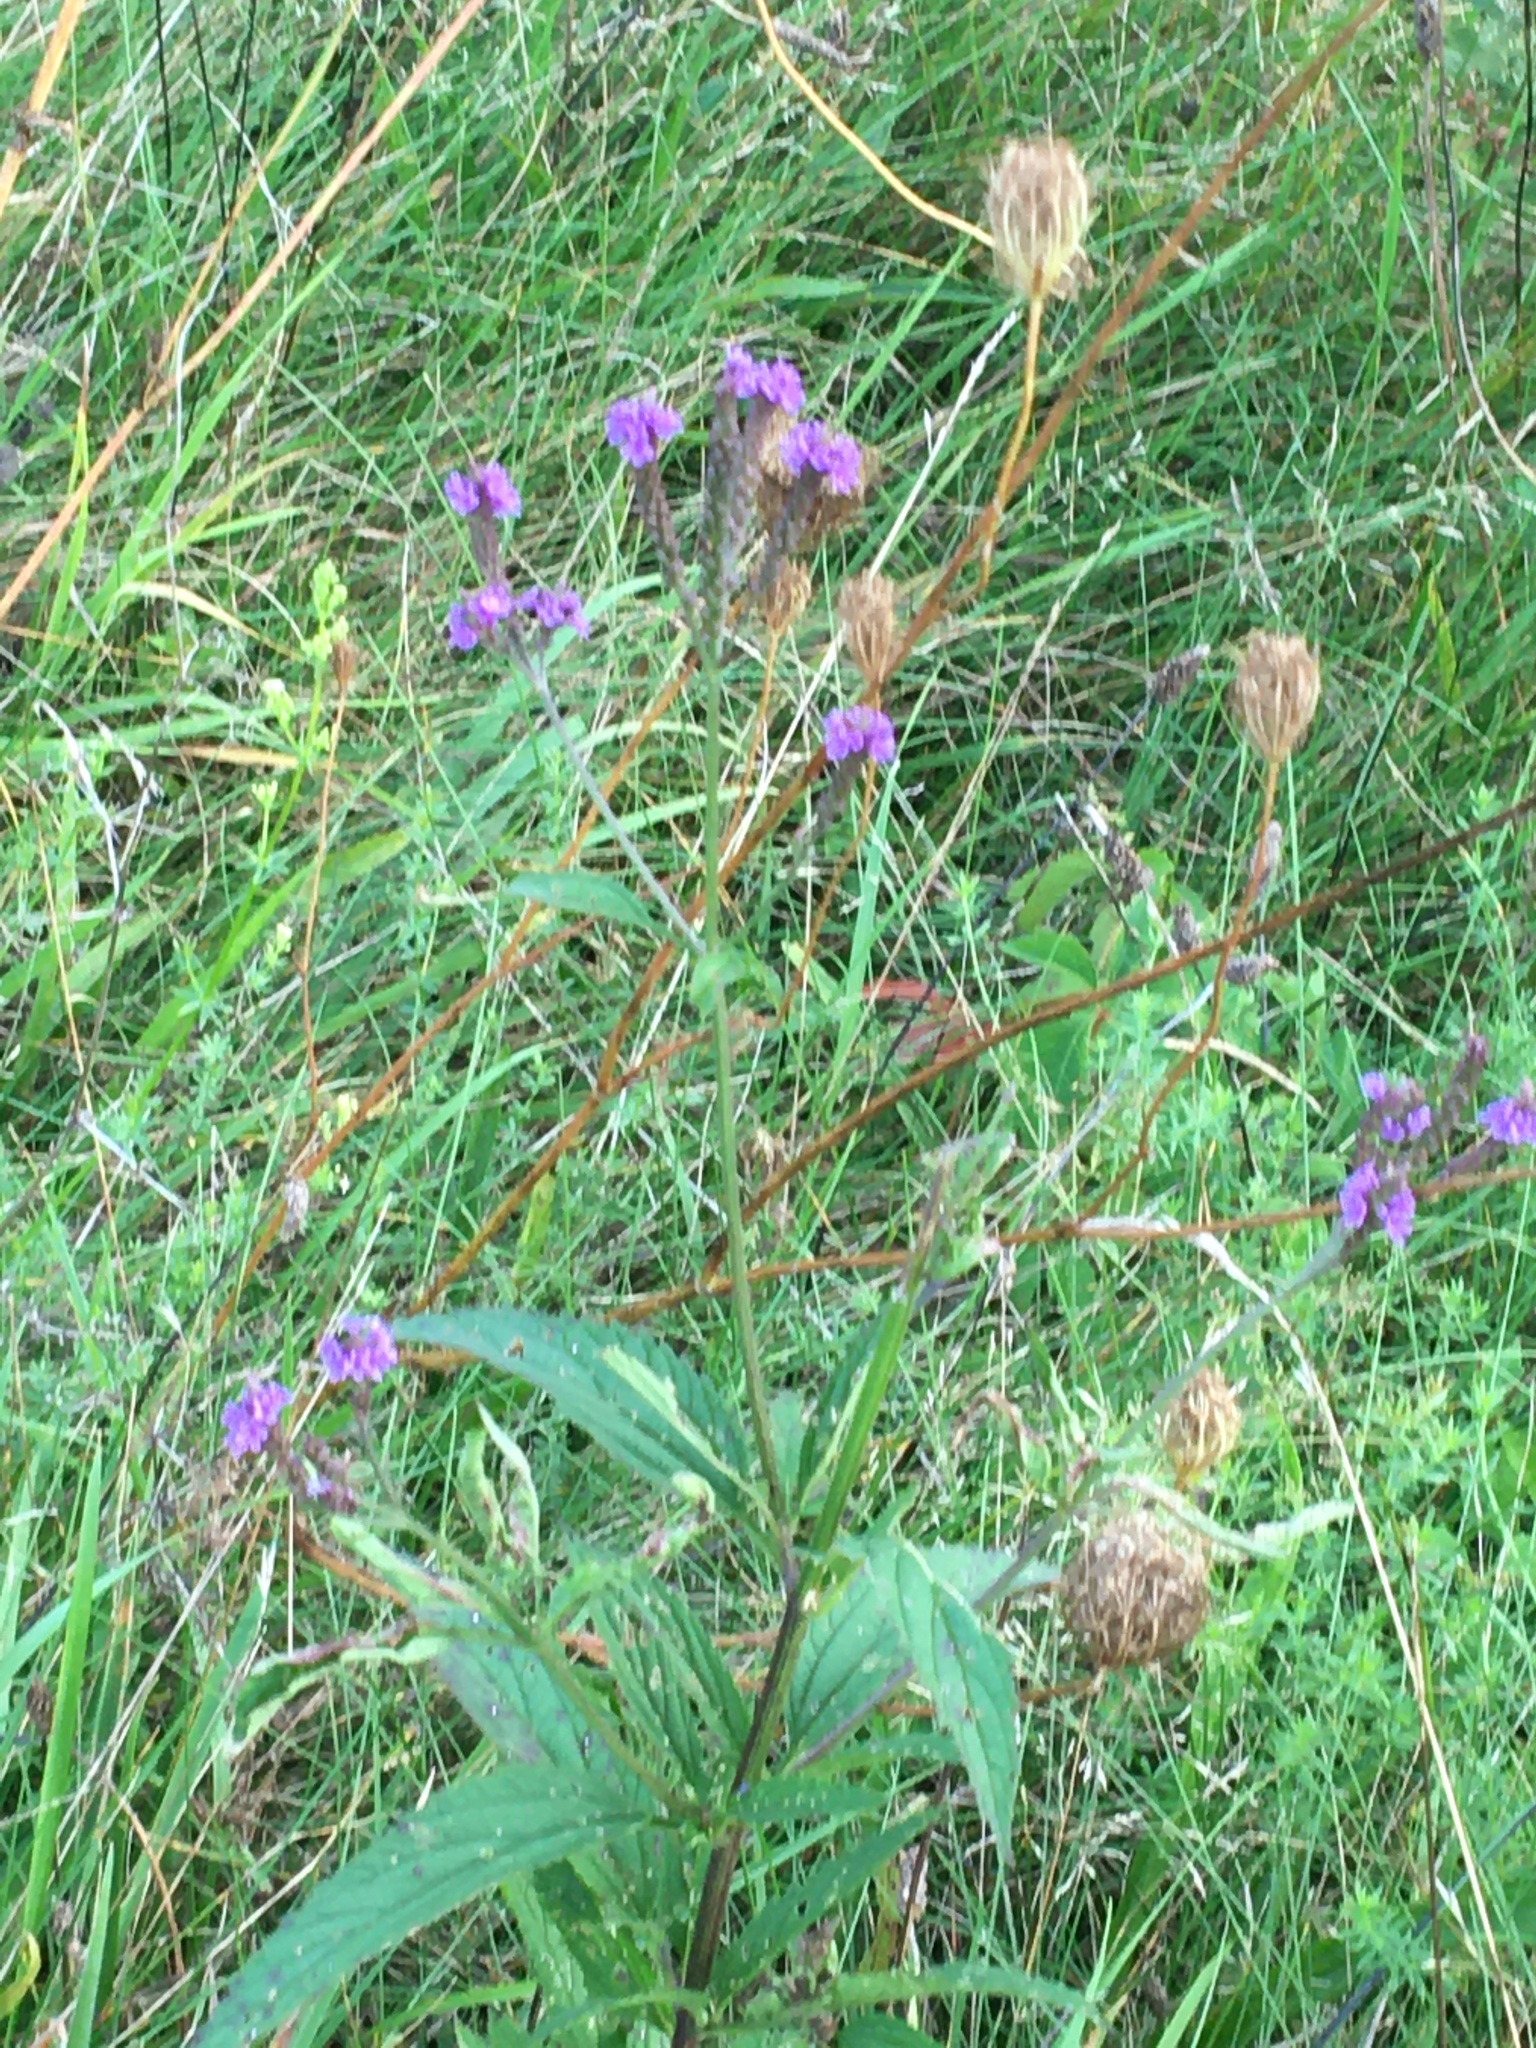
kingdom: Plantae
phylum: Tracheophyta
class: Magnoliopsida
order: Lamiales
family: Verbenaceae
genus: Verbena
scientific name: Verbena hastata
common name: American blue vervain
